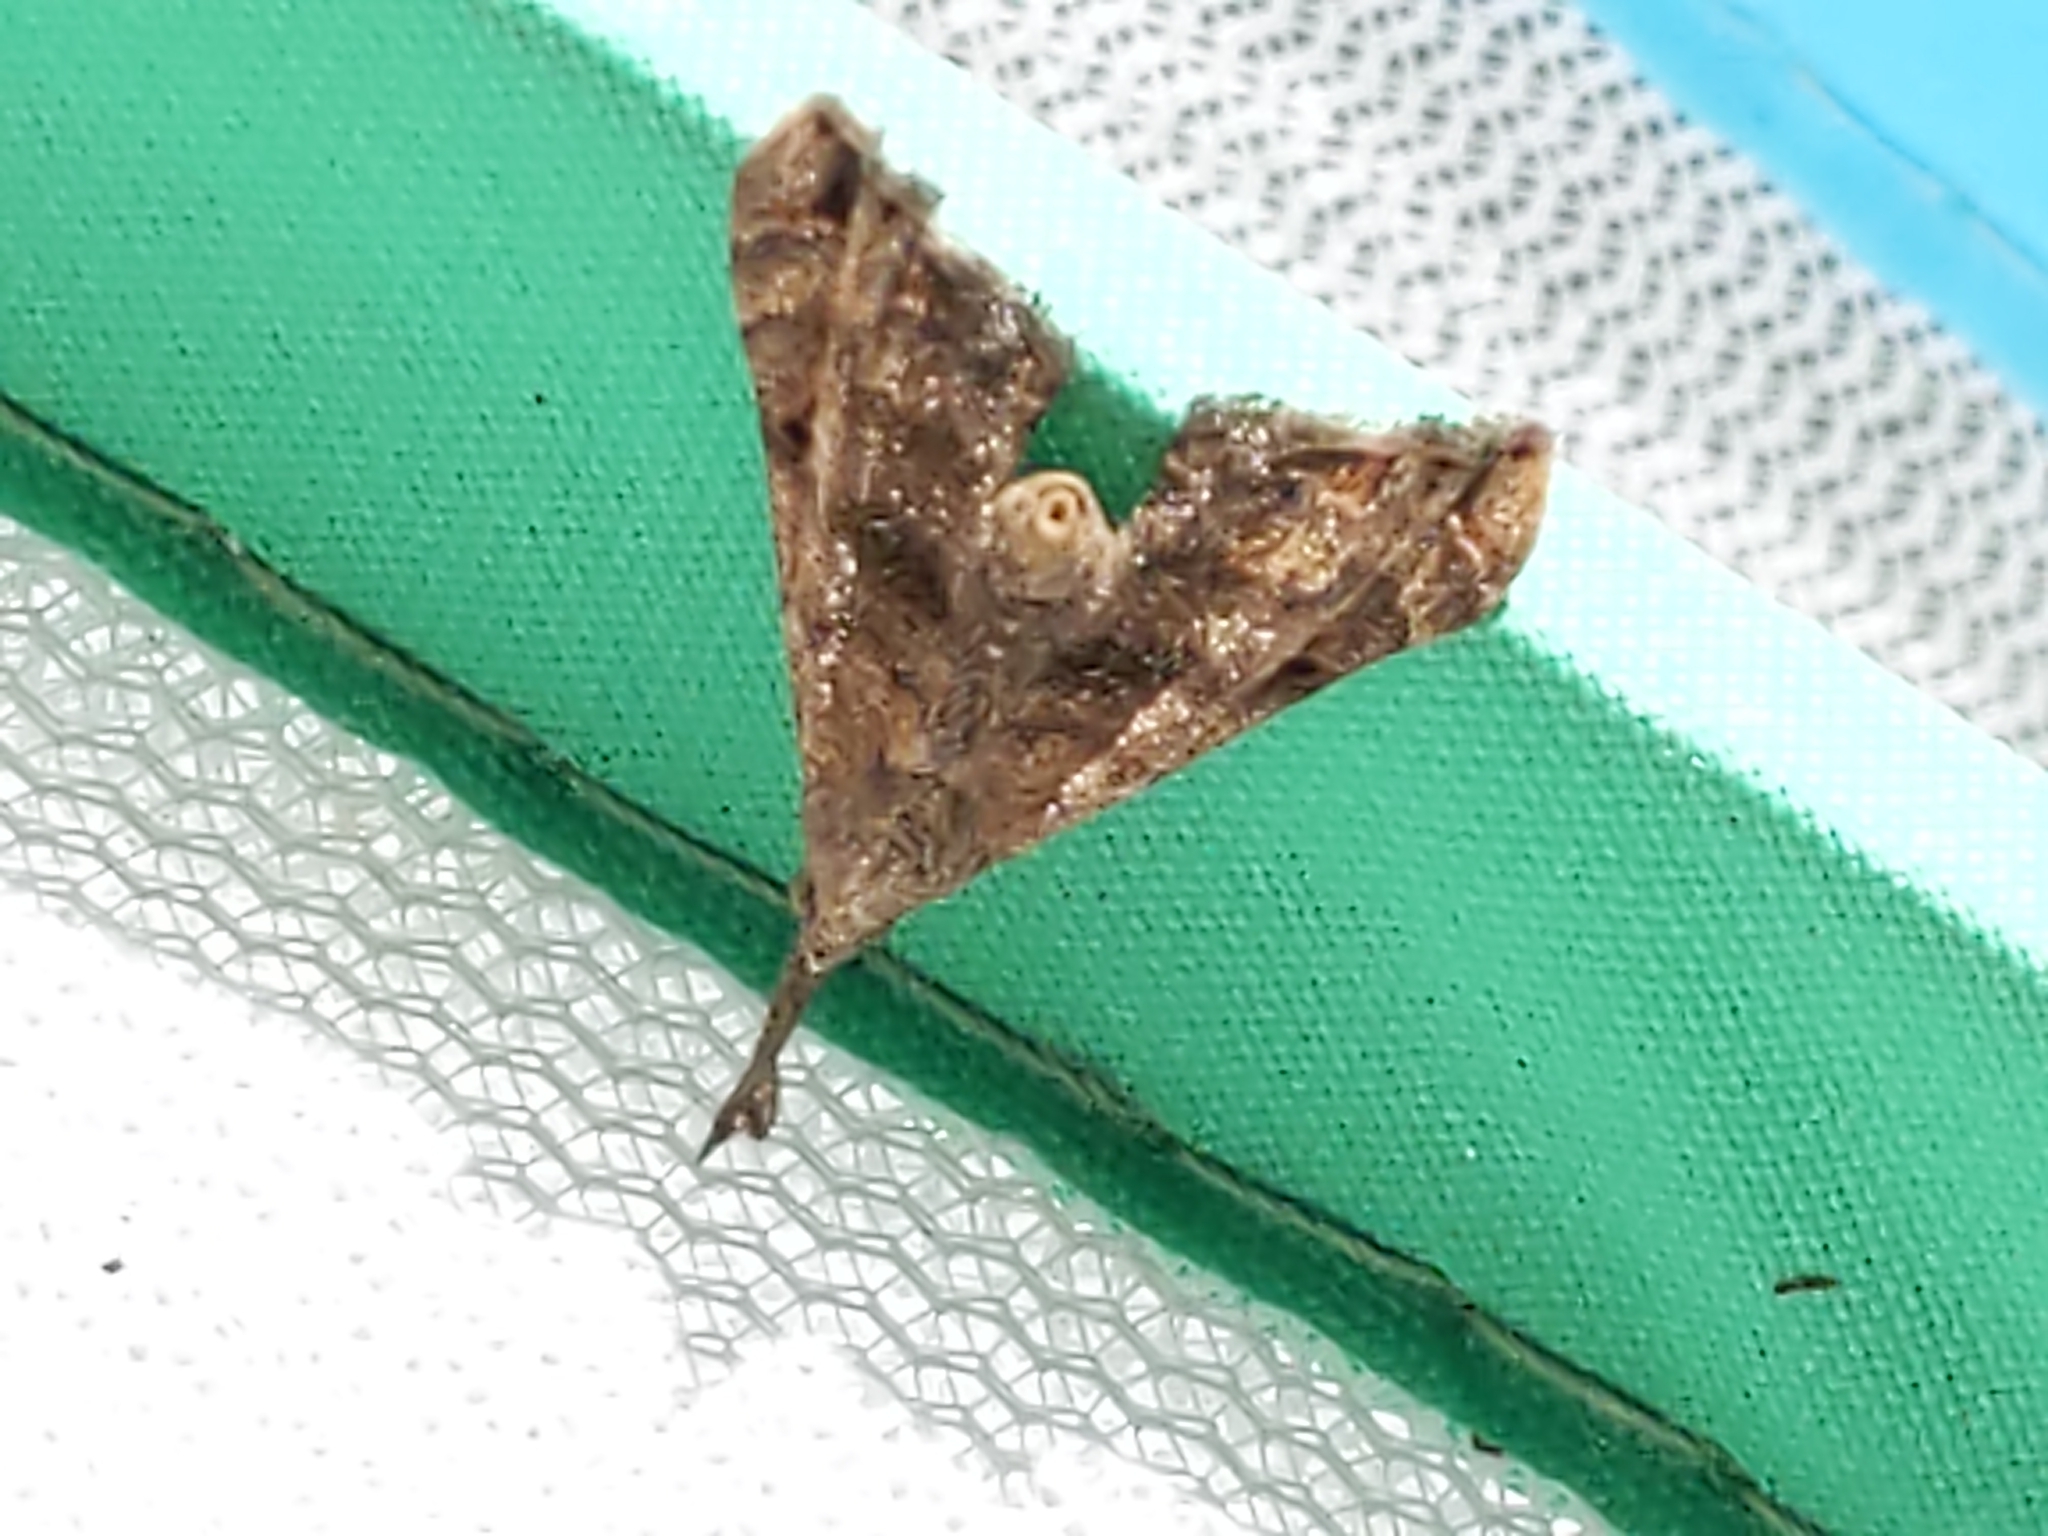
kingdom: Animalia
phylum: Arthropoda
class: Insecta
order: Lepidoptera
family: Erebidae
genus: Palthis
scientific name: Palthis asopialis
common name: Faint-spotted palthis moth
